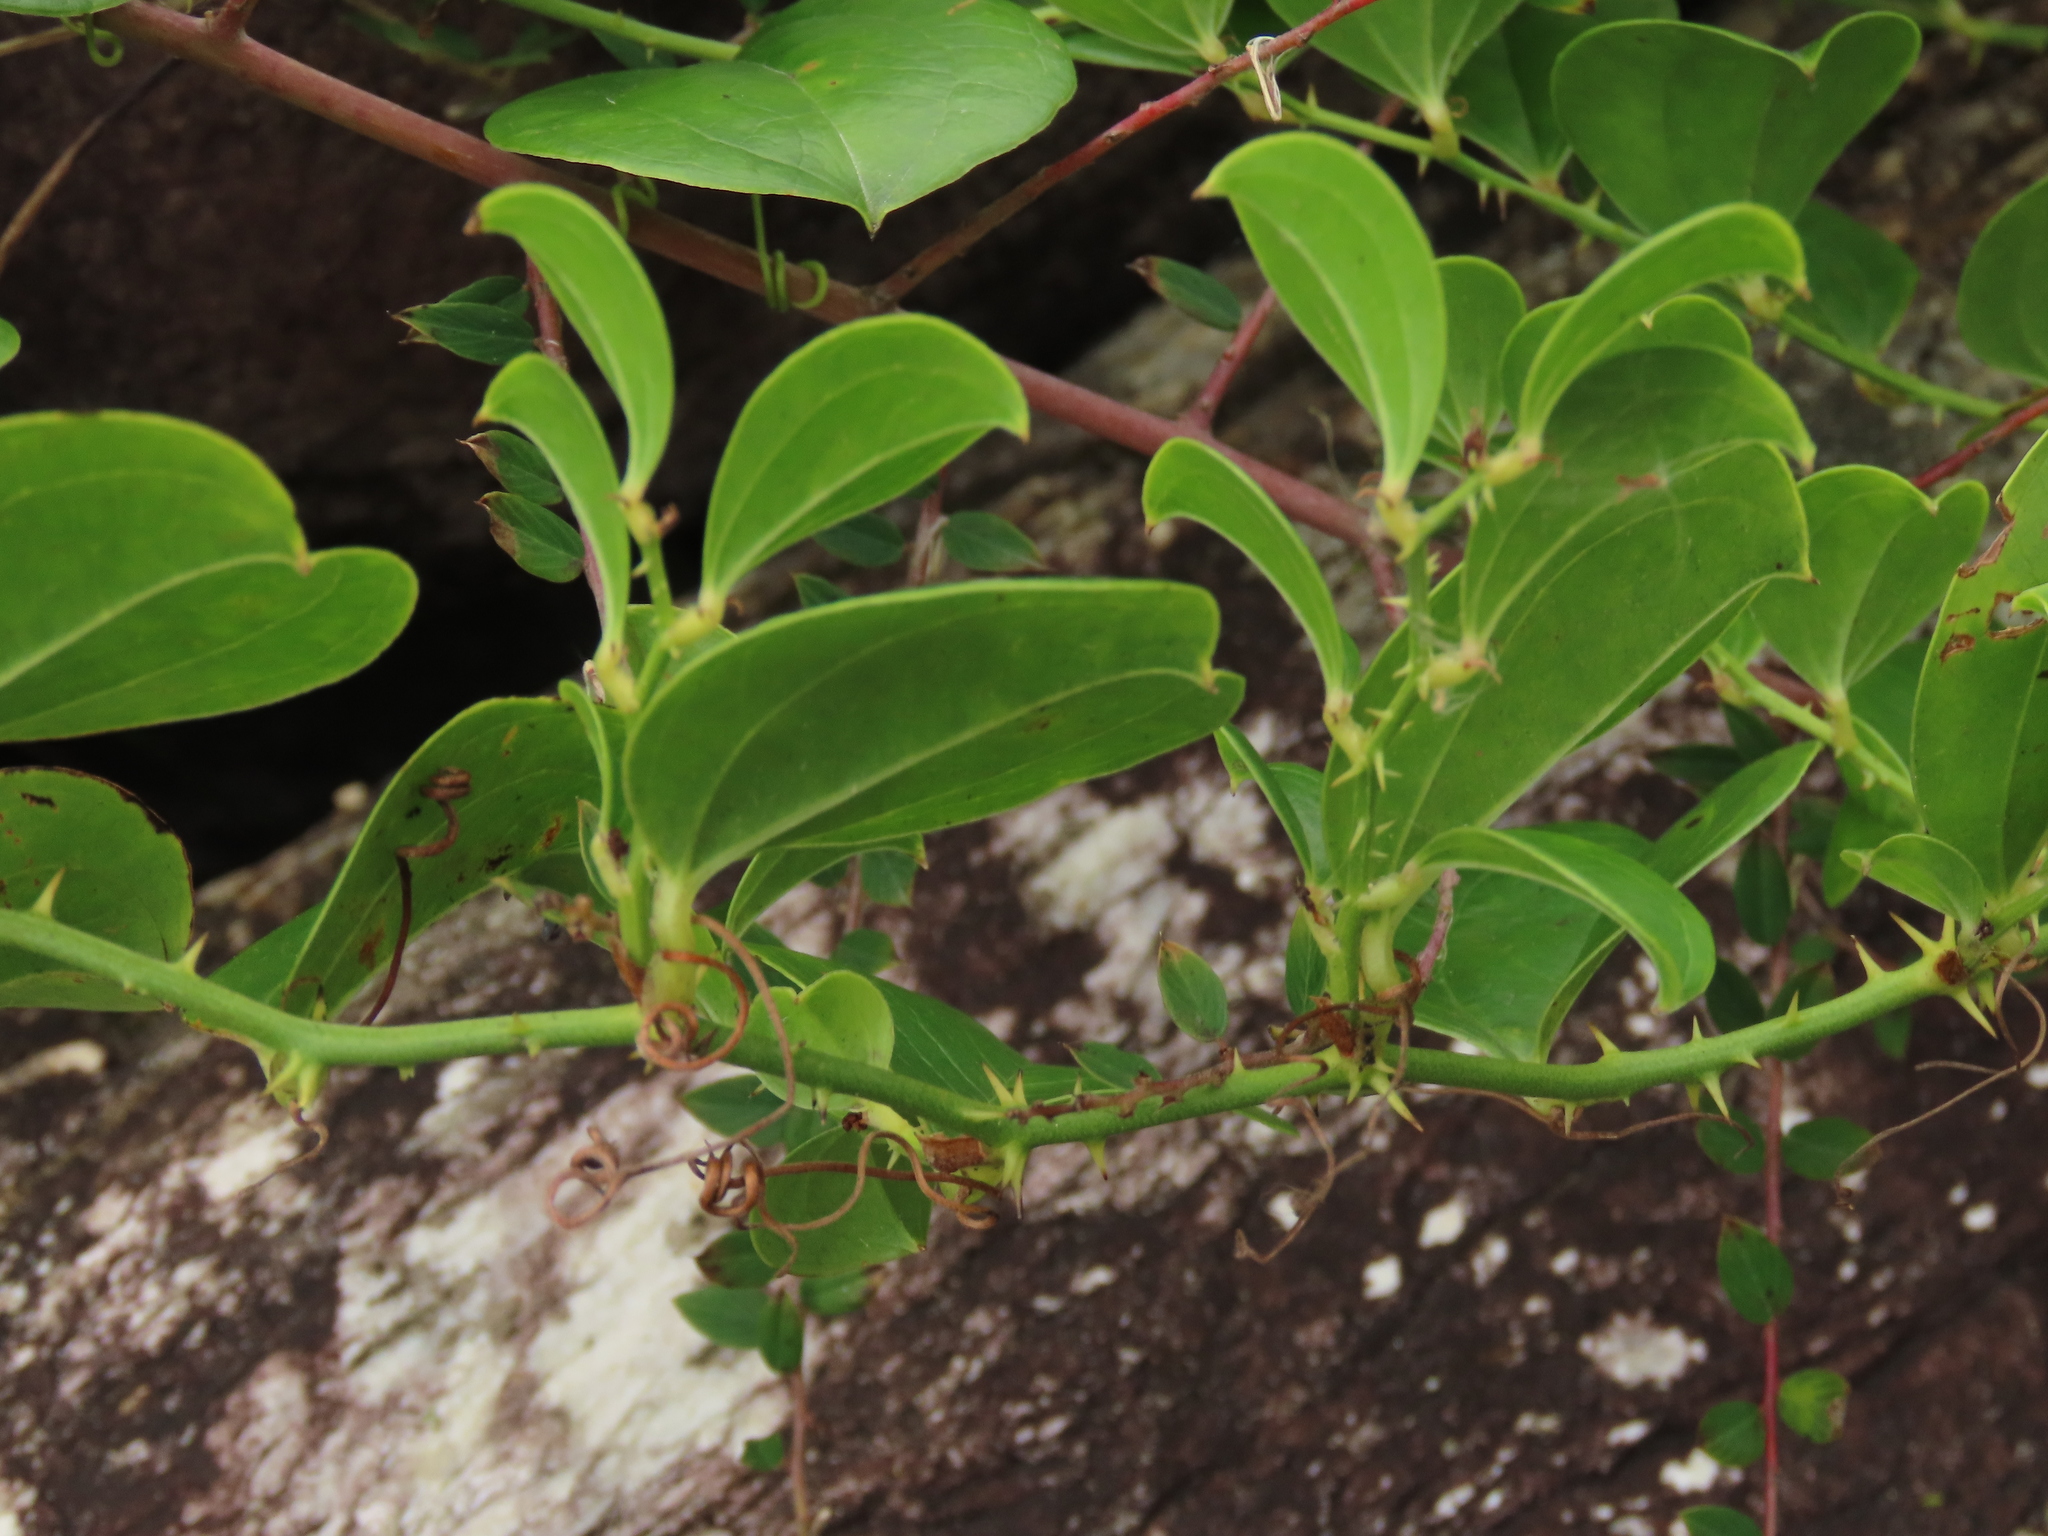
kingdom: Plantae
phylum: Tracheophyta
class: Liliopsida
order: Liliales
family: Smilacaceae
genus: Smilax
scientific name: Smilax china
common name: Chinaroot
